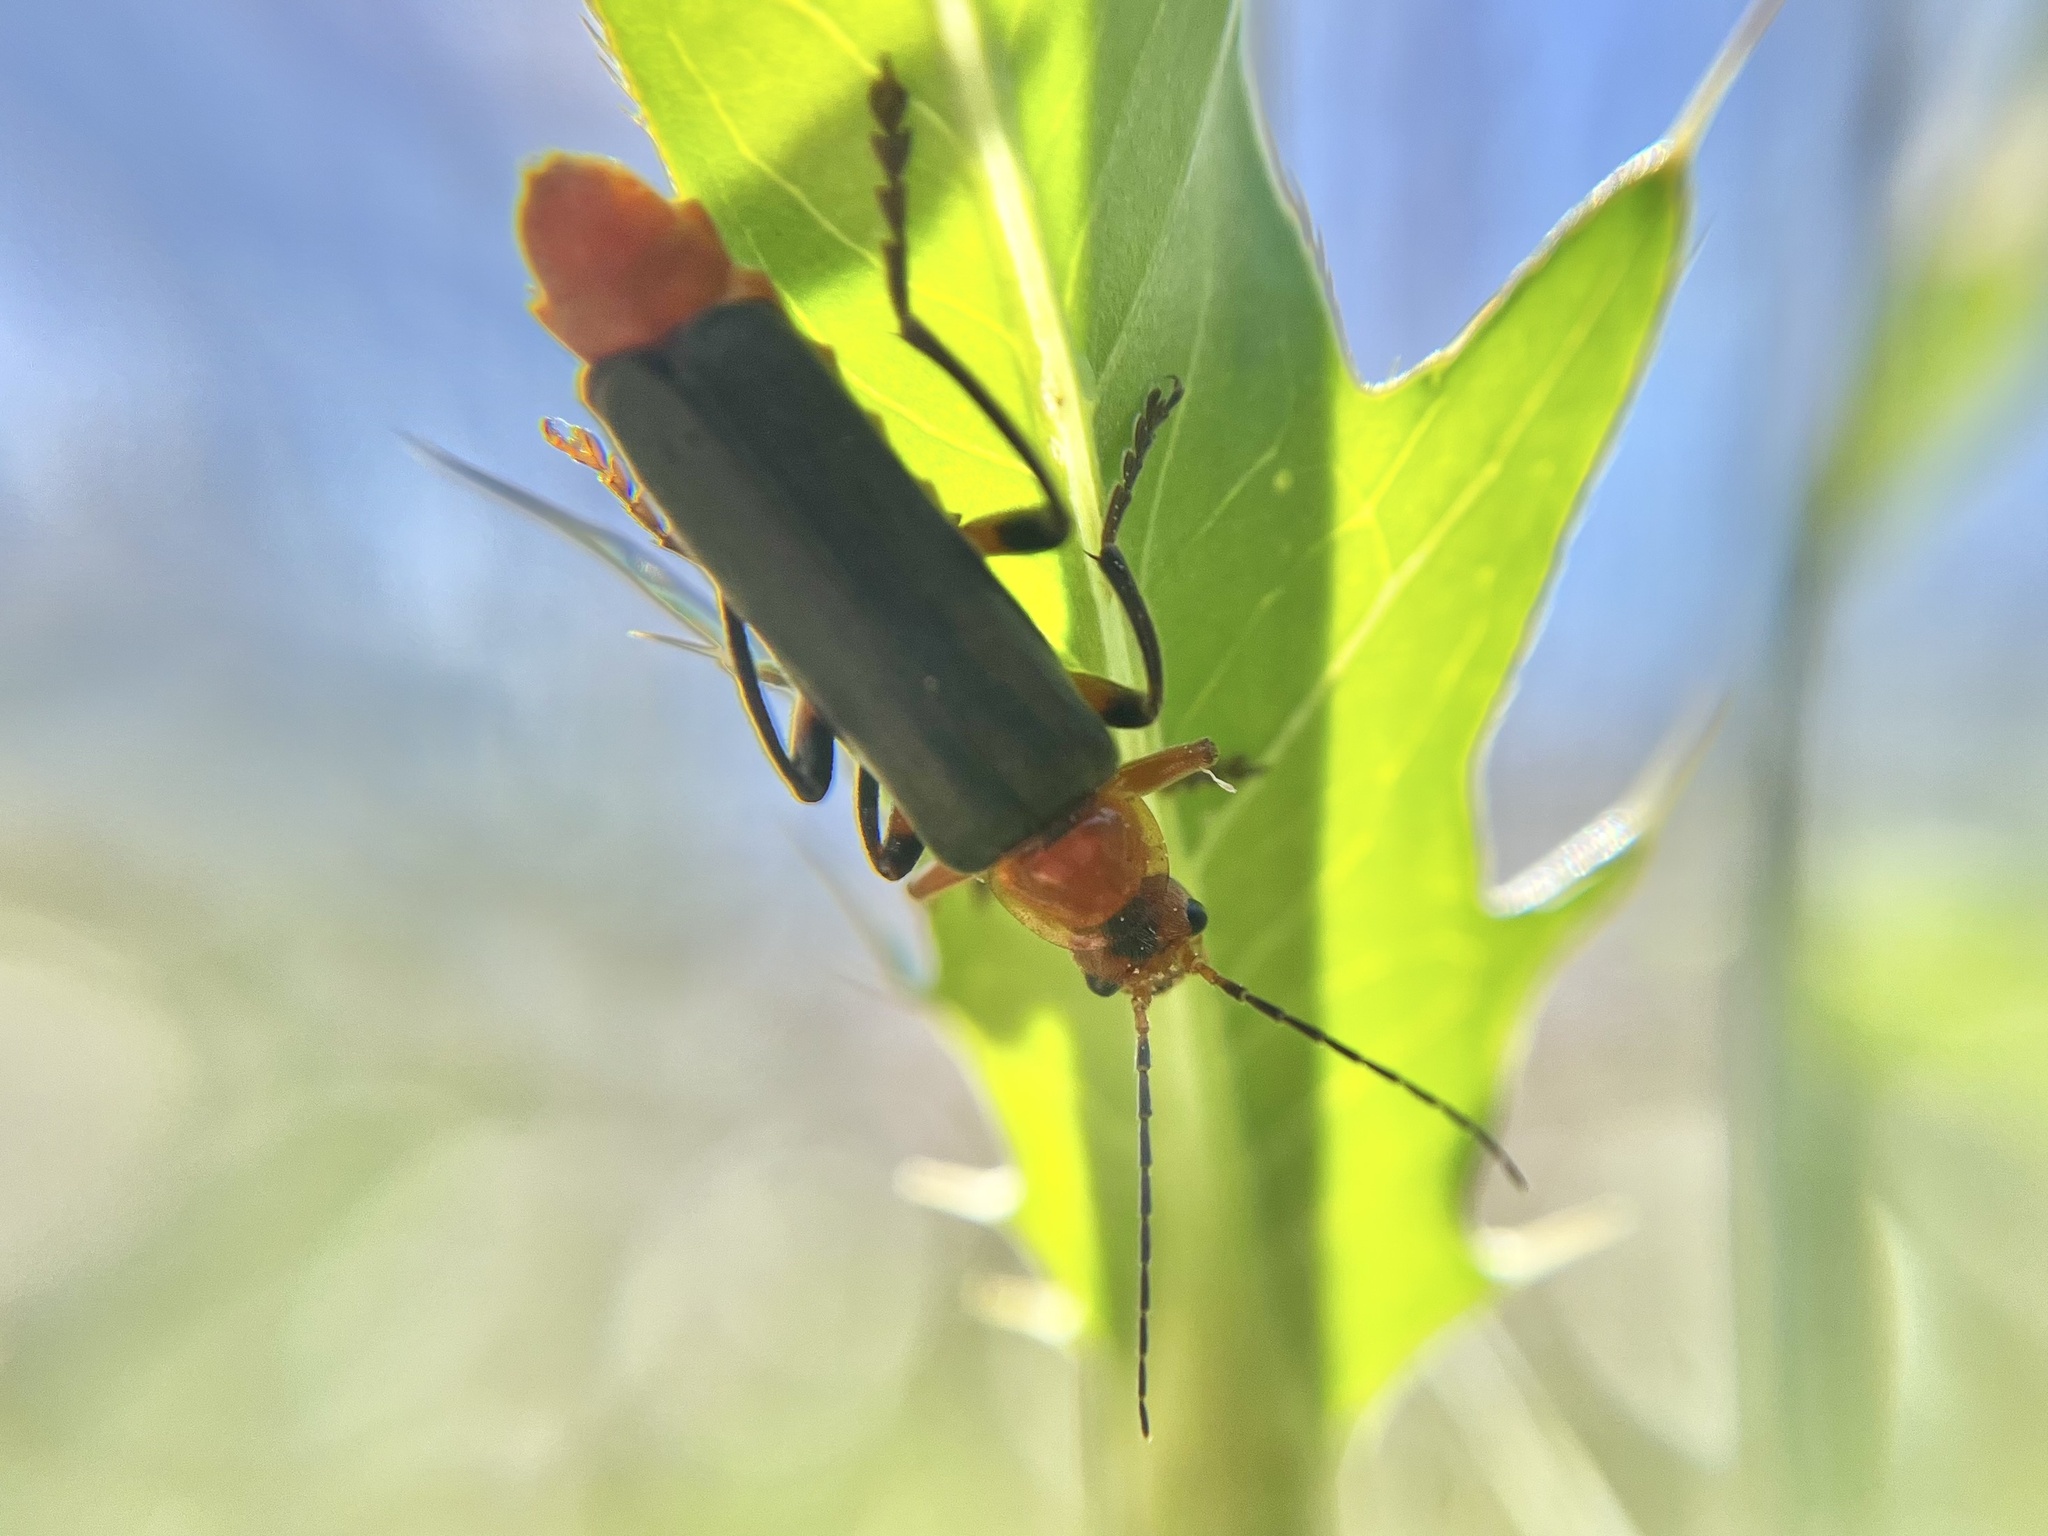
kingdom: Animalia
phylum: Arthropoda
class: Insecta
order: Coleoptera
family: Cantharidae
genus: Cantharis
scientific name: Cantharis livida
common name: Livid soldier beetle
